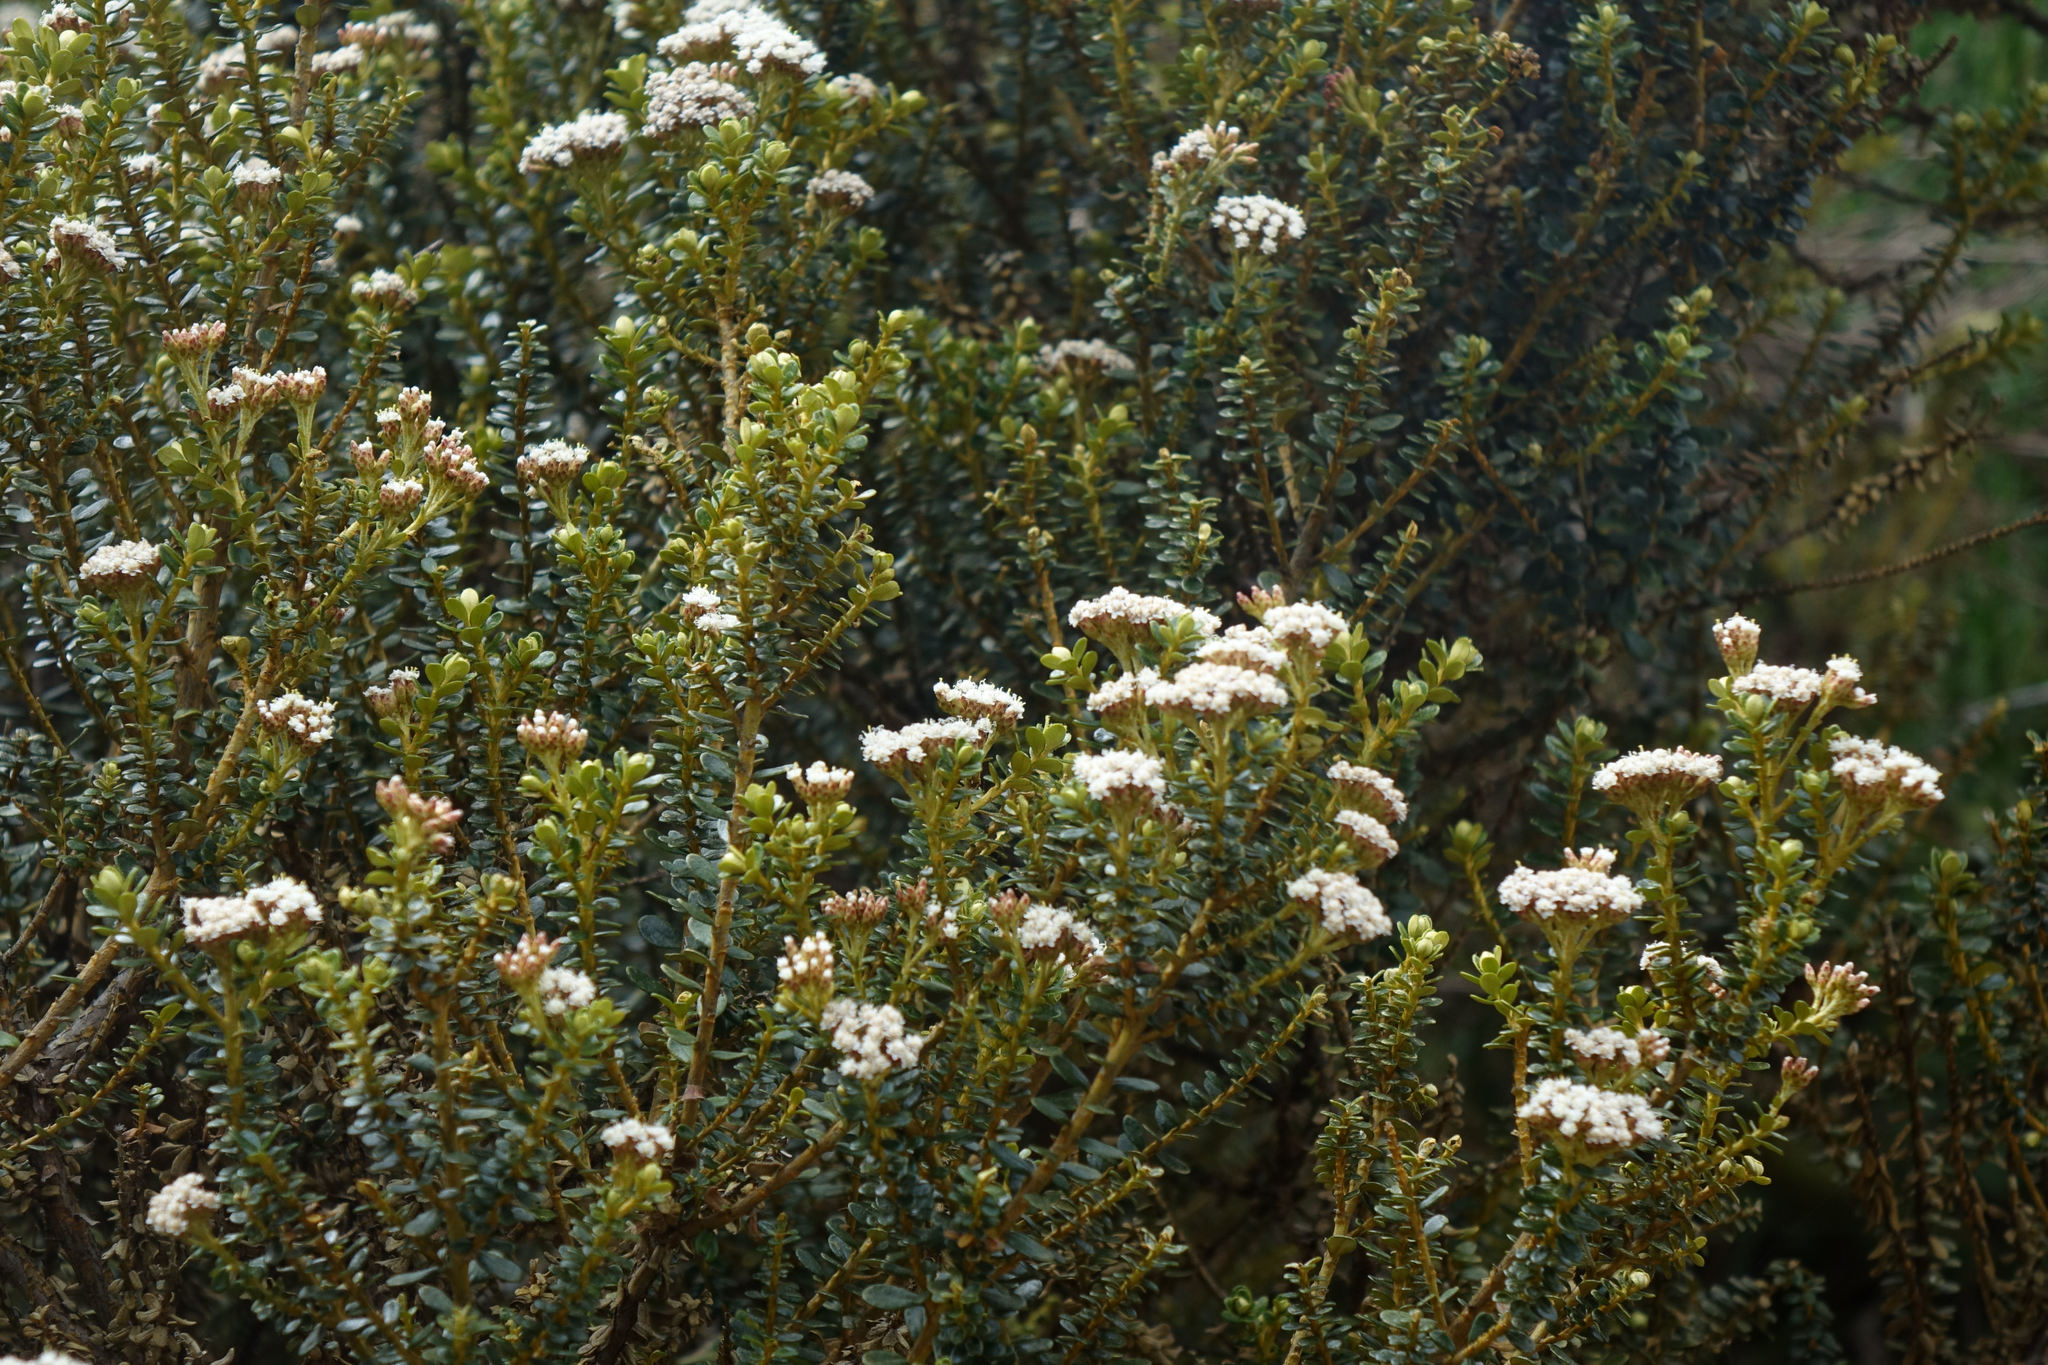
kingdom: Plantae
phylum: Tracheophyta
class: Magnoliopsida
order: Asterales
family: Asteraceae
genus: Ozothamnus
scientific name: Ozothamnus leptophyllus
